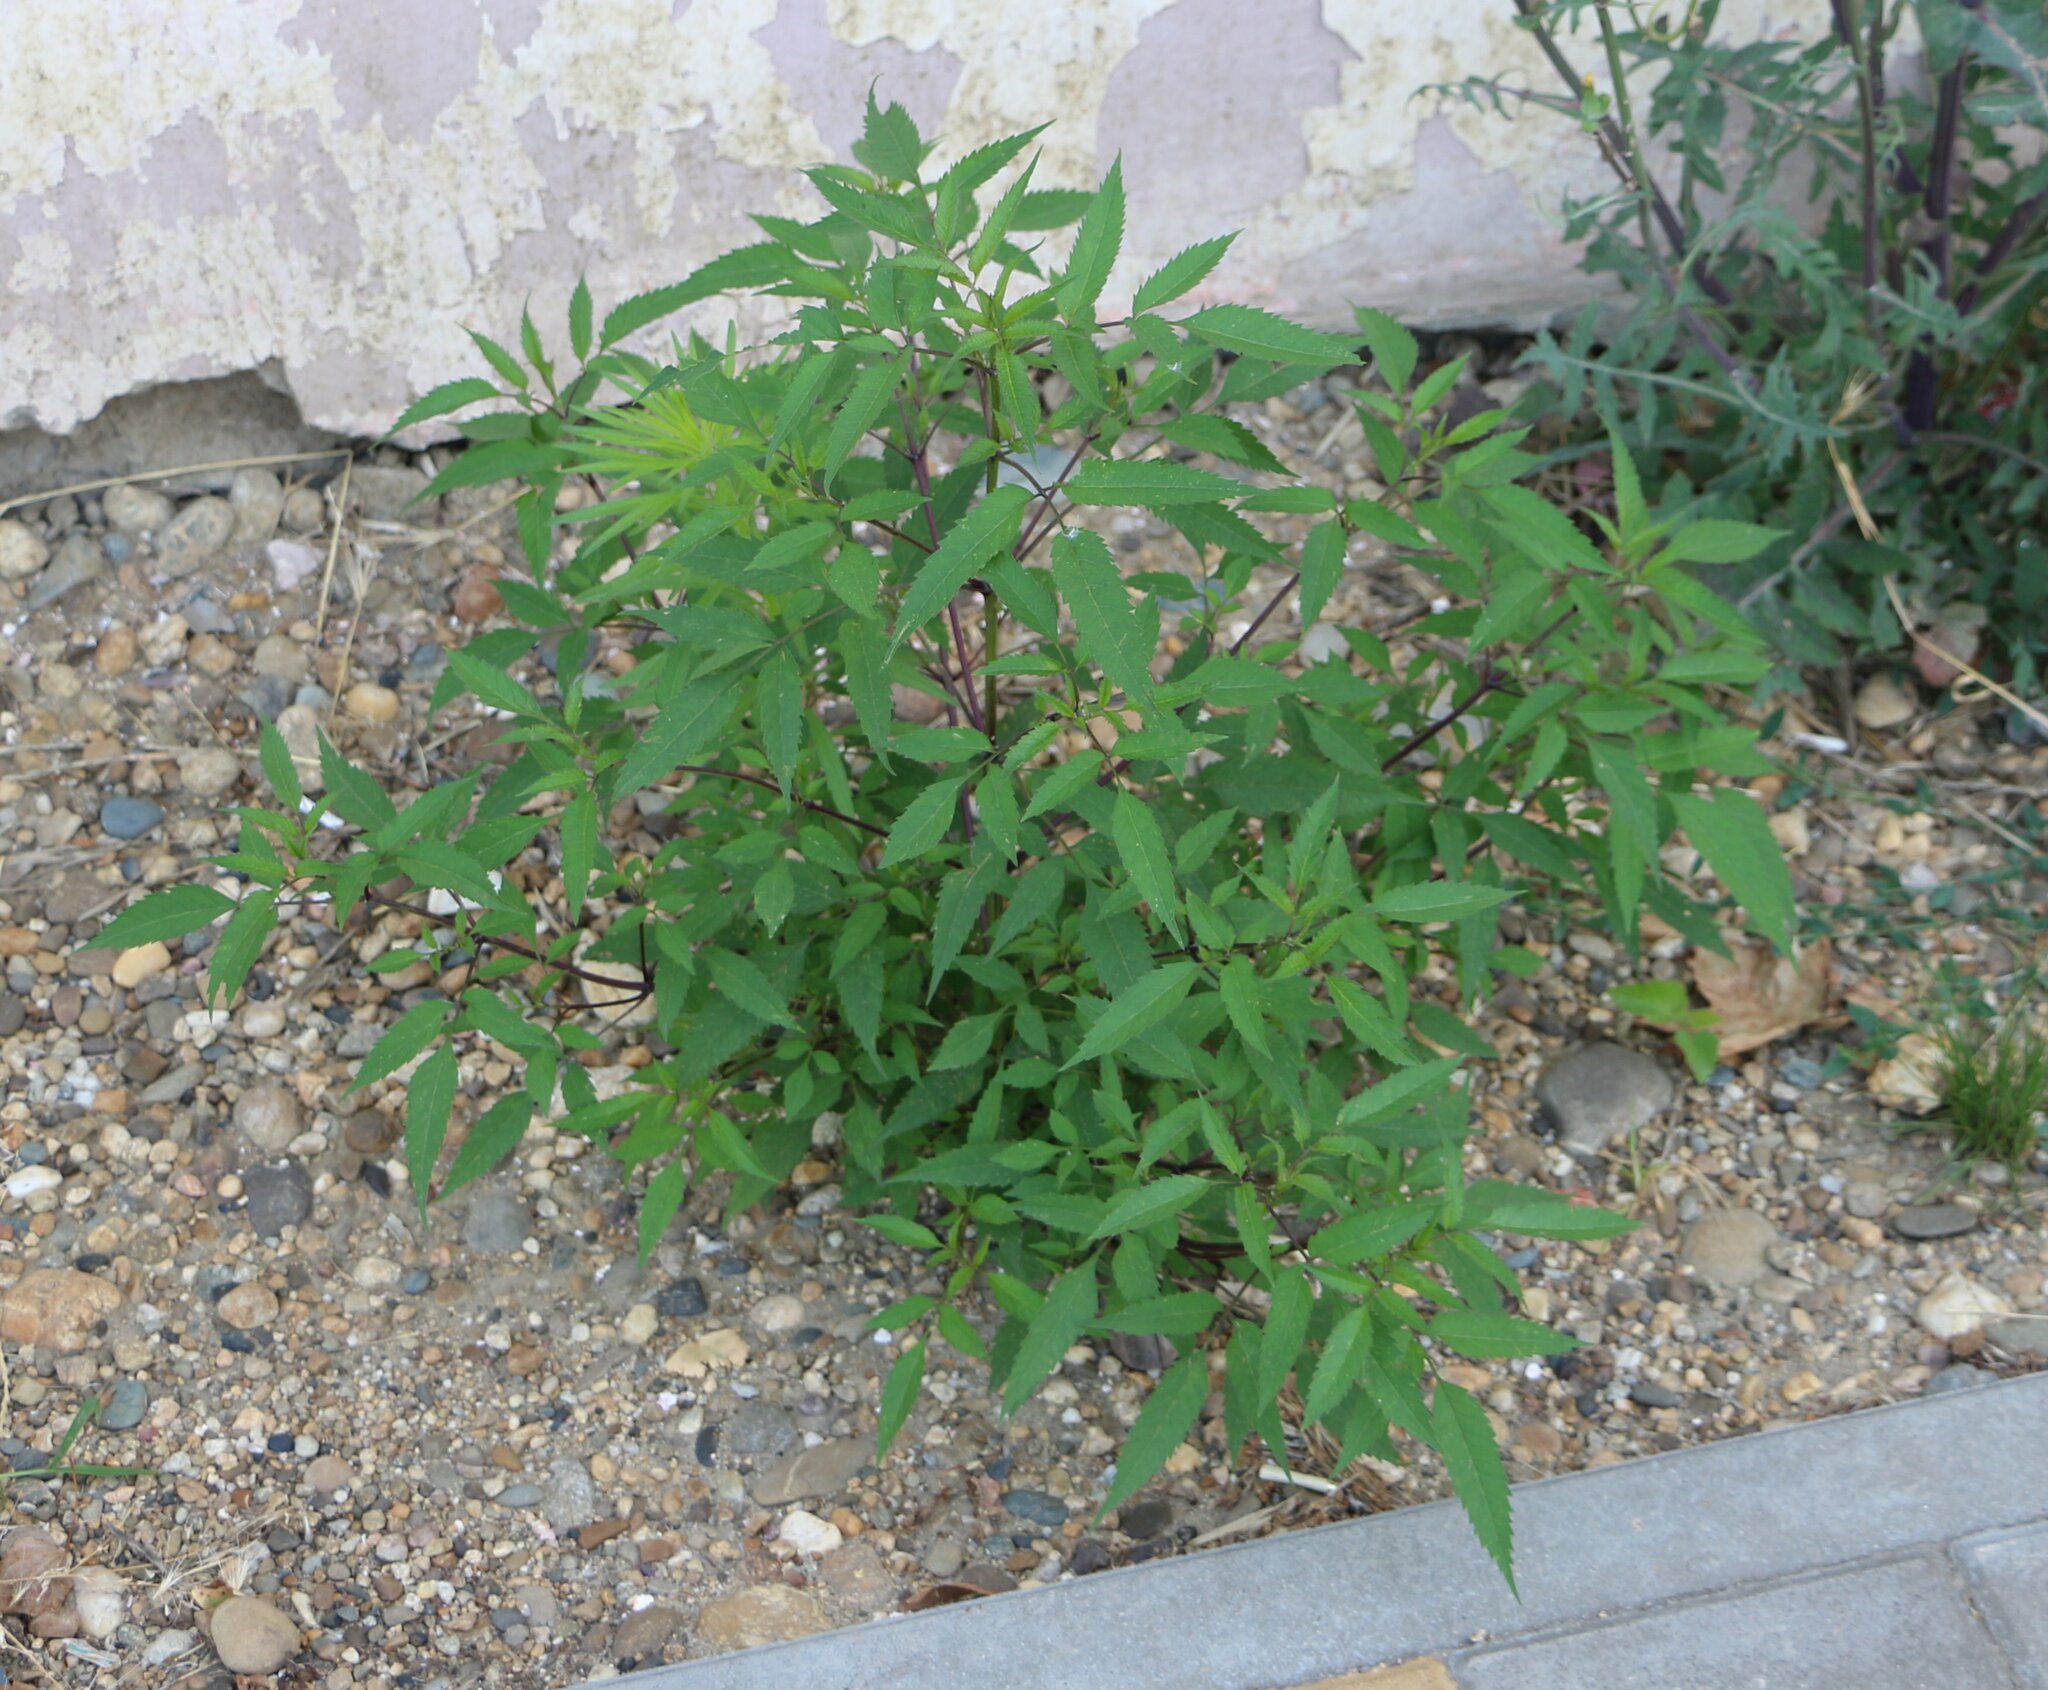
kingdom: Plantae
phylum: Tracheophyta
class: Magnoliopsida
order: Asterales
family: Asteraceae
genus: Bidens
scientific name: Bidens frondosa
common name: Beggarticks
